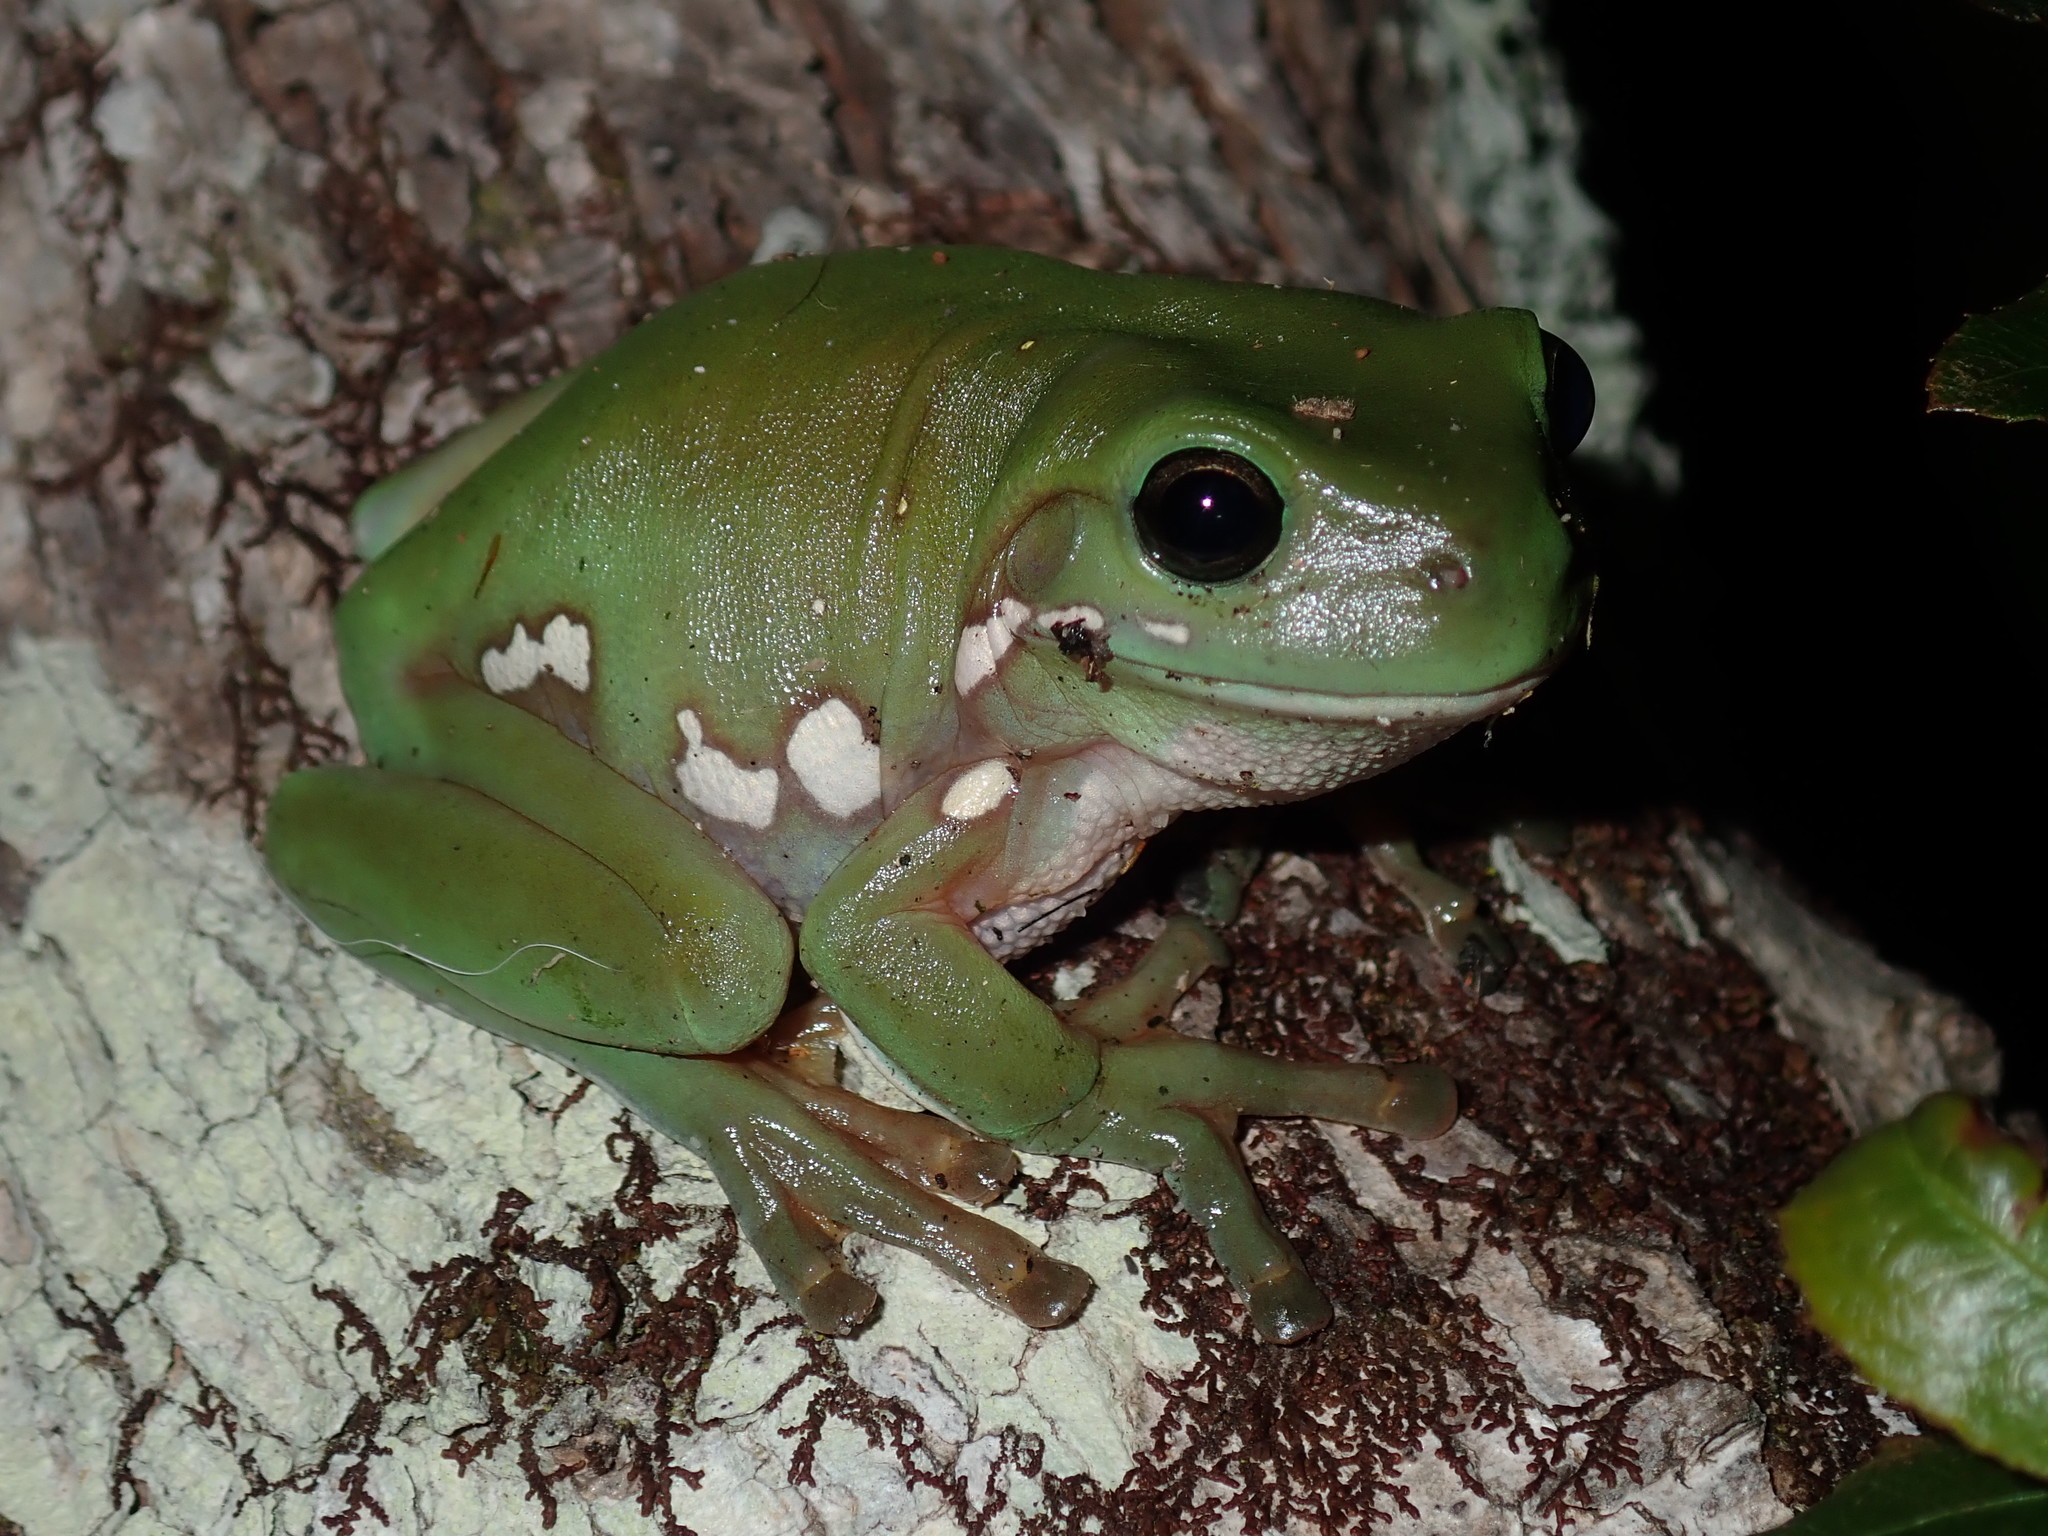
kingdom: Animalia
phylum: Chordata
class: Amphibia
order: Anura
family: Pelodryadidae
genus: Ranoidea
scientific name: Ranoidea caerulea
